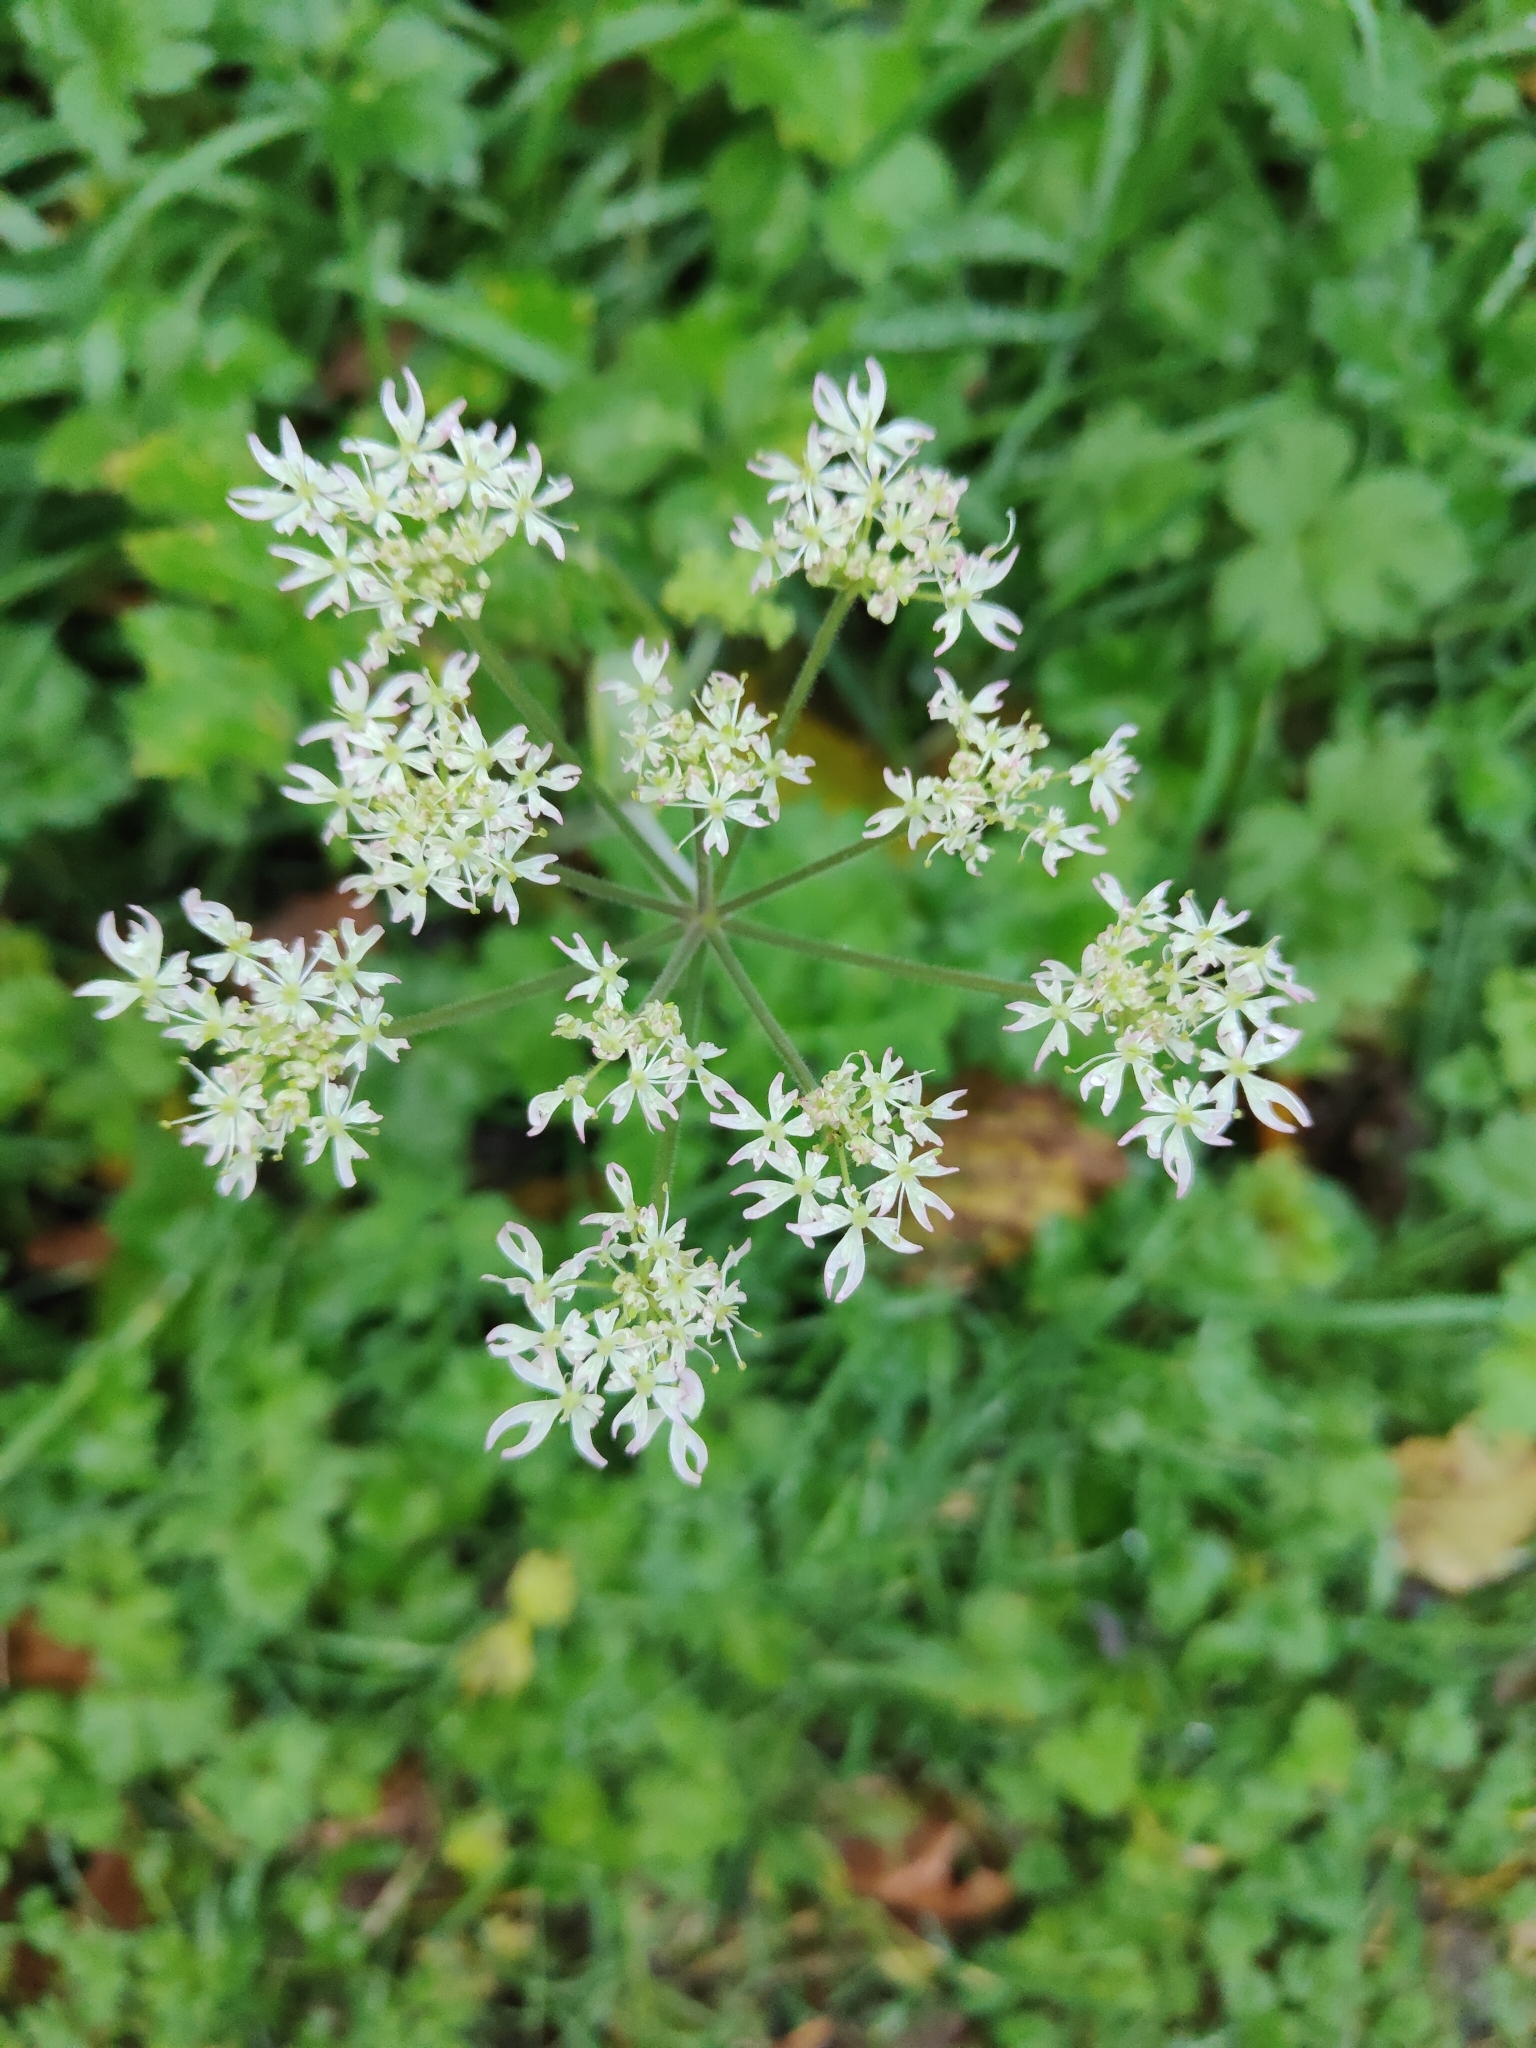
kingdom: Plantae
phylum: Tracheophyta
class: Magnoliopsida
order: Apiales
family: Apiaceae
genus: Heracleum
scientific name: Heracleum sphondylium
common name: Hogweed
